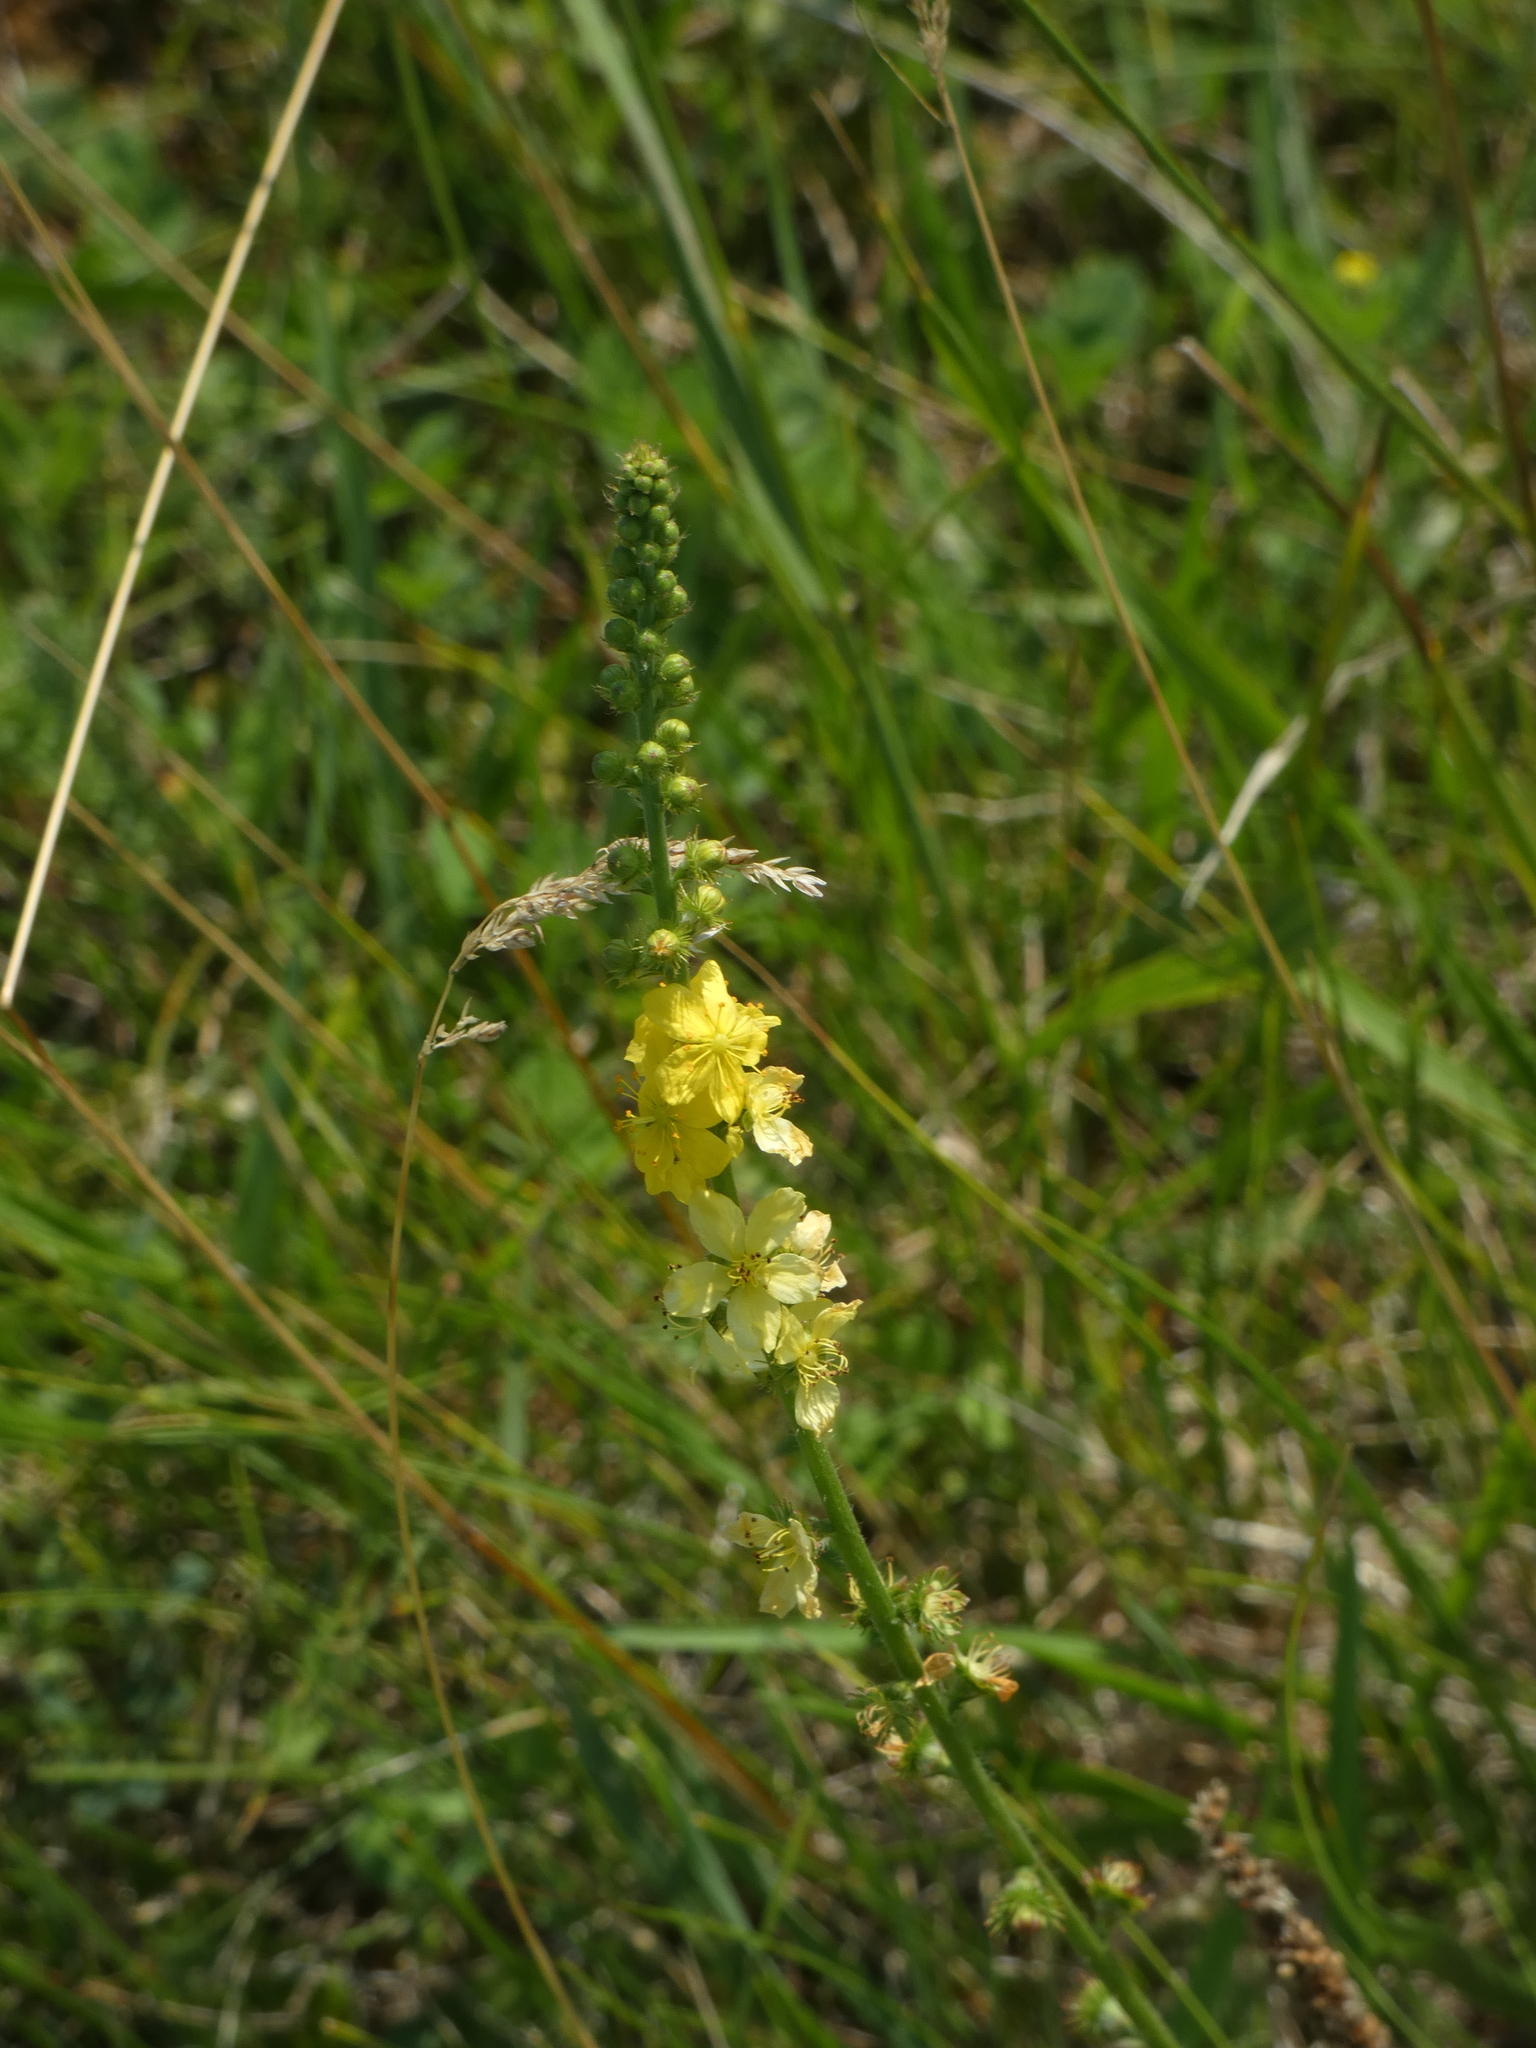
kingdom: Plantae
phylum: Tracheophyta
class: Magnoliopsida
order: Rosales
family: Rosaceae
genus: Agrimonia
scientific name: Agrimonia eupatoria
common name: Agrimony
